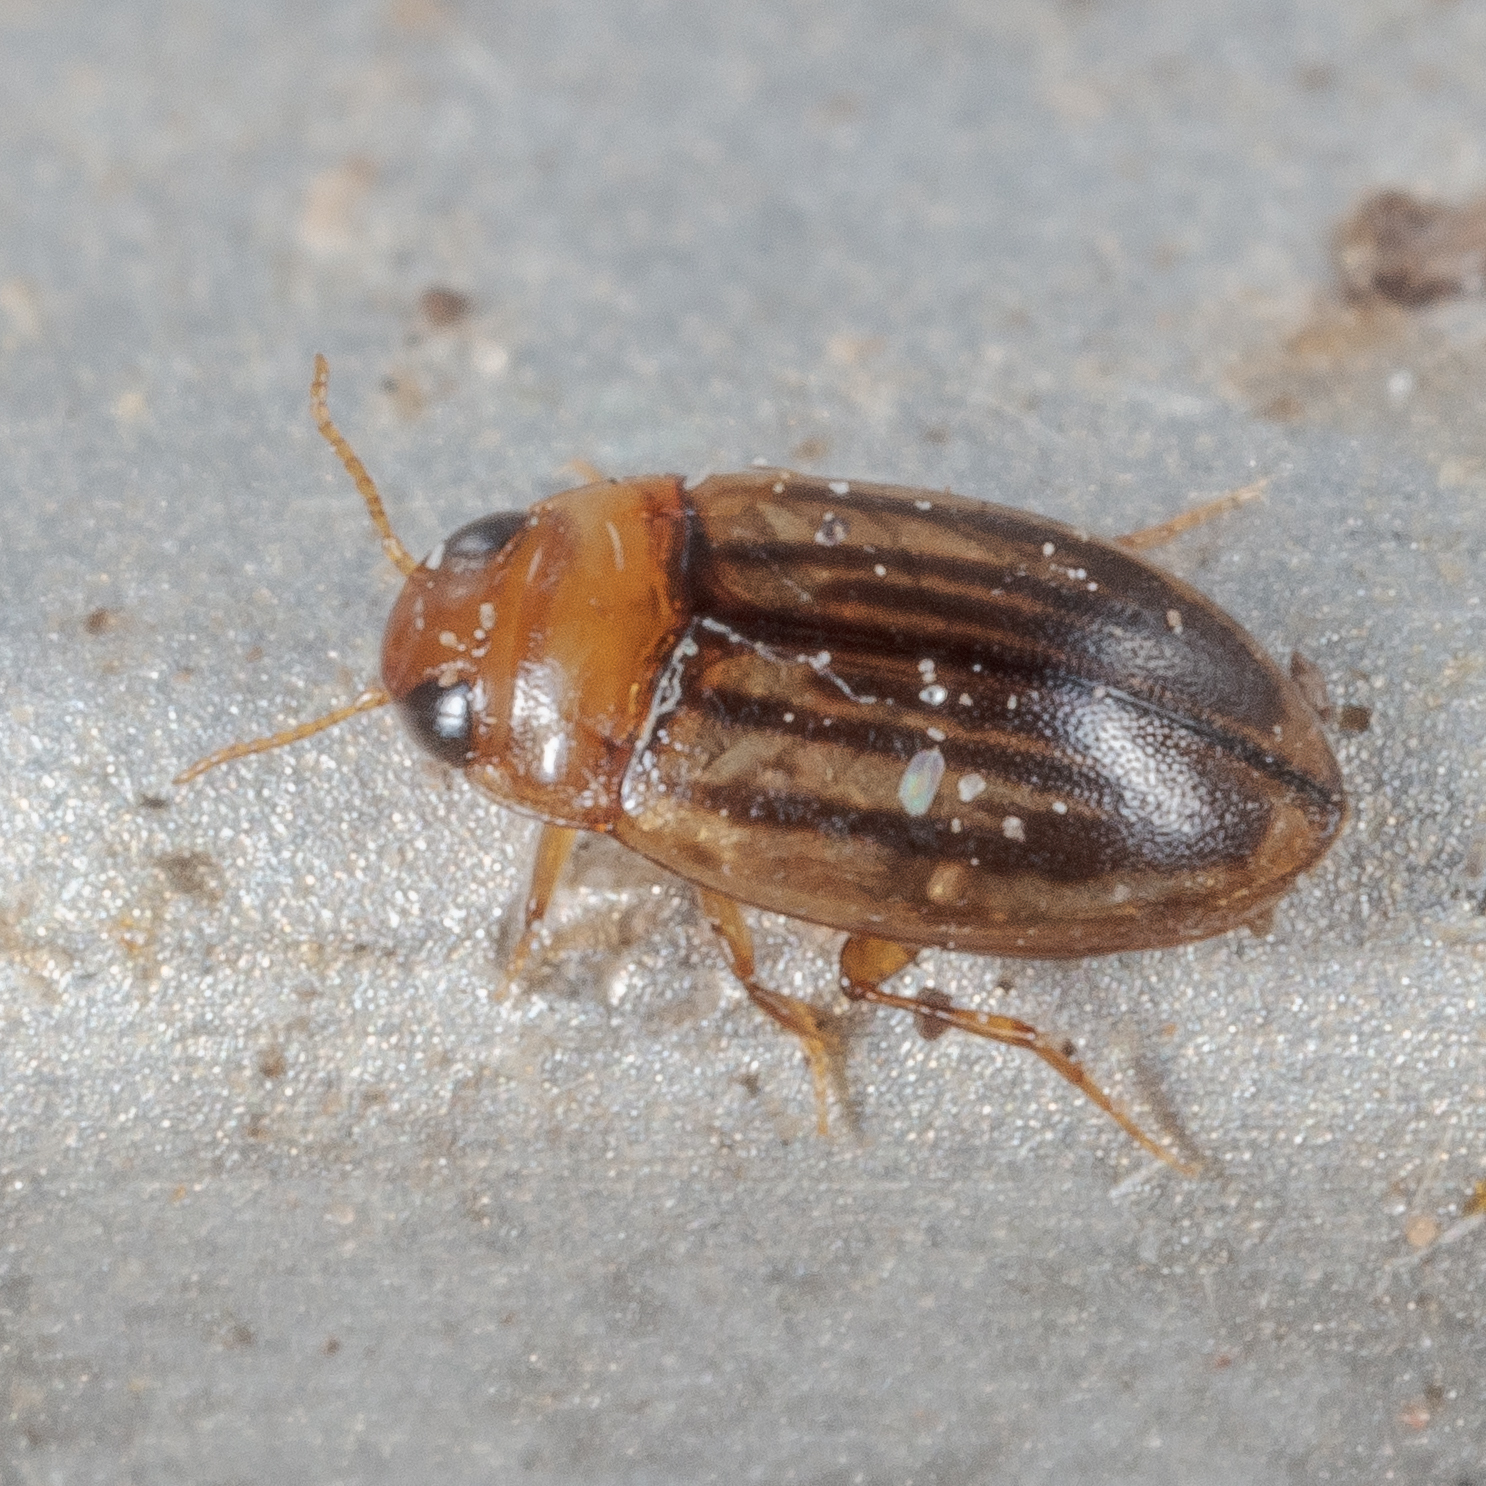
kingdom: Animalia
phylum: Arthropoda
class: Insecta
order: Coleoptera
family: Dytiscidae
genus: Neobidessus
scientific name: Neobidessus pullus
